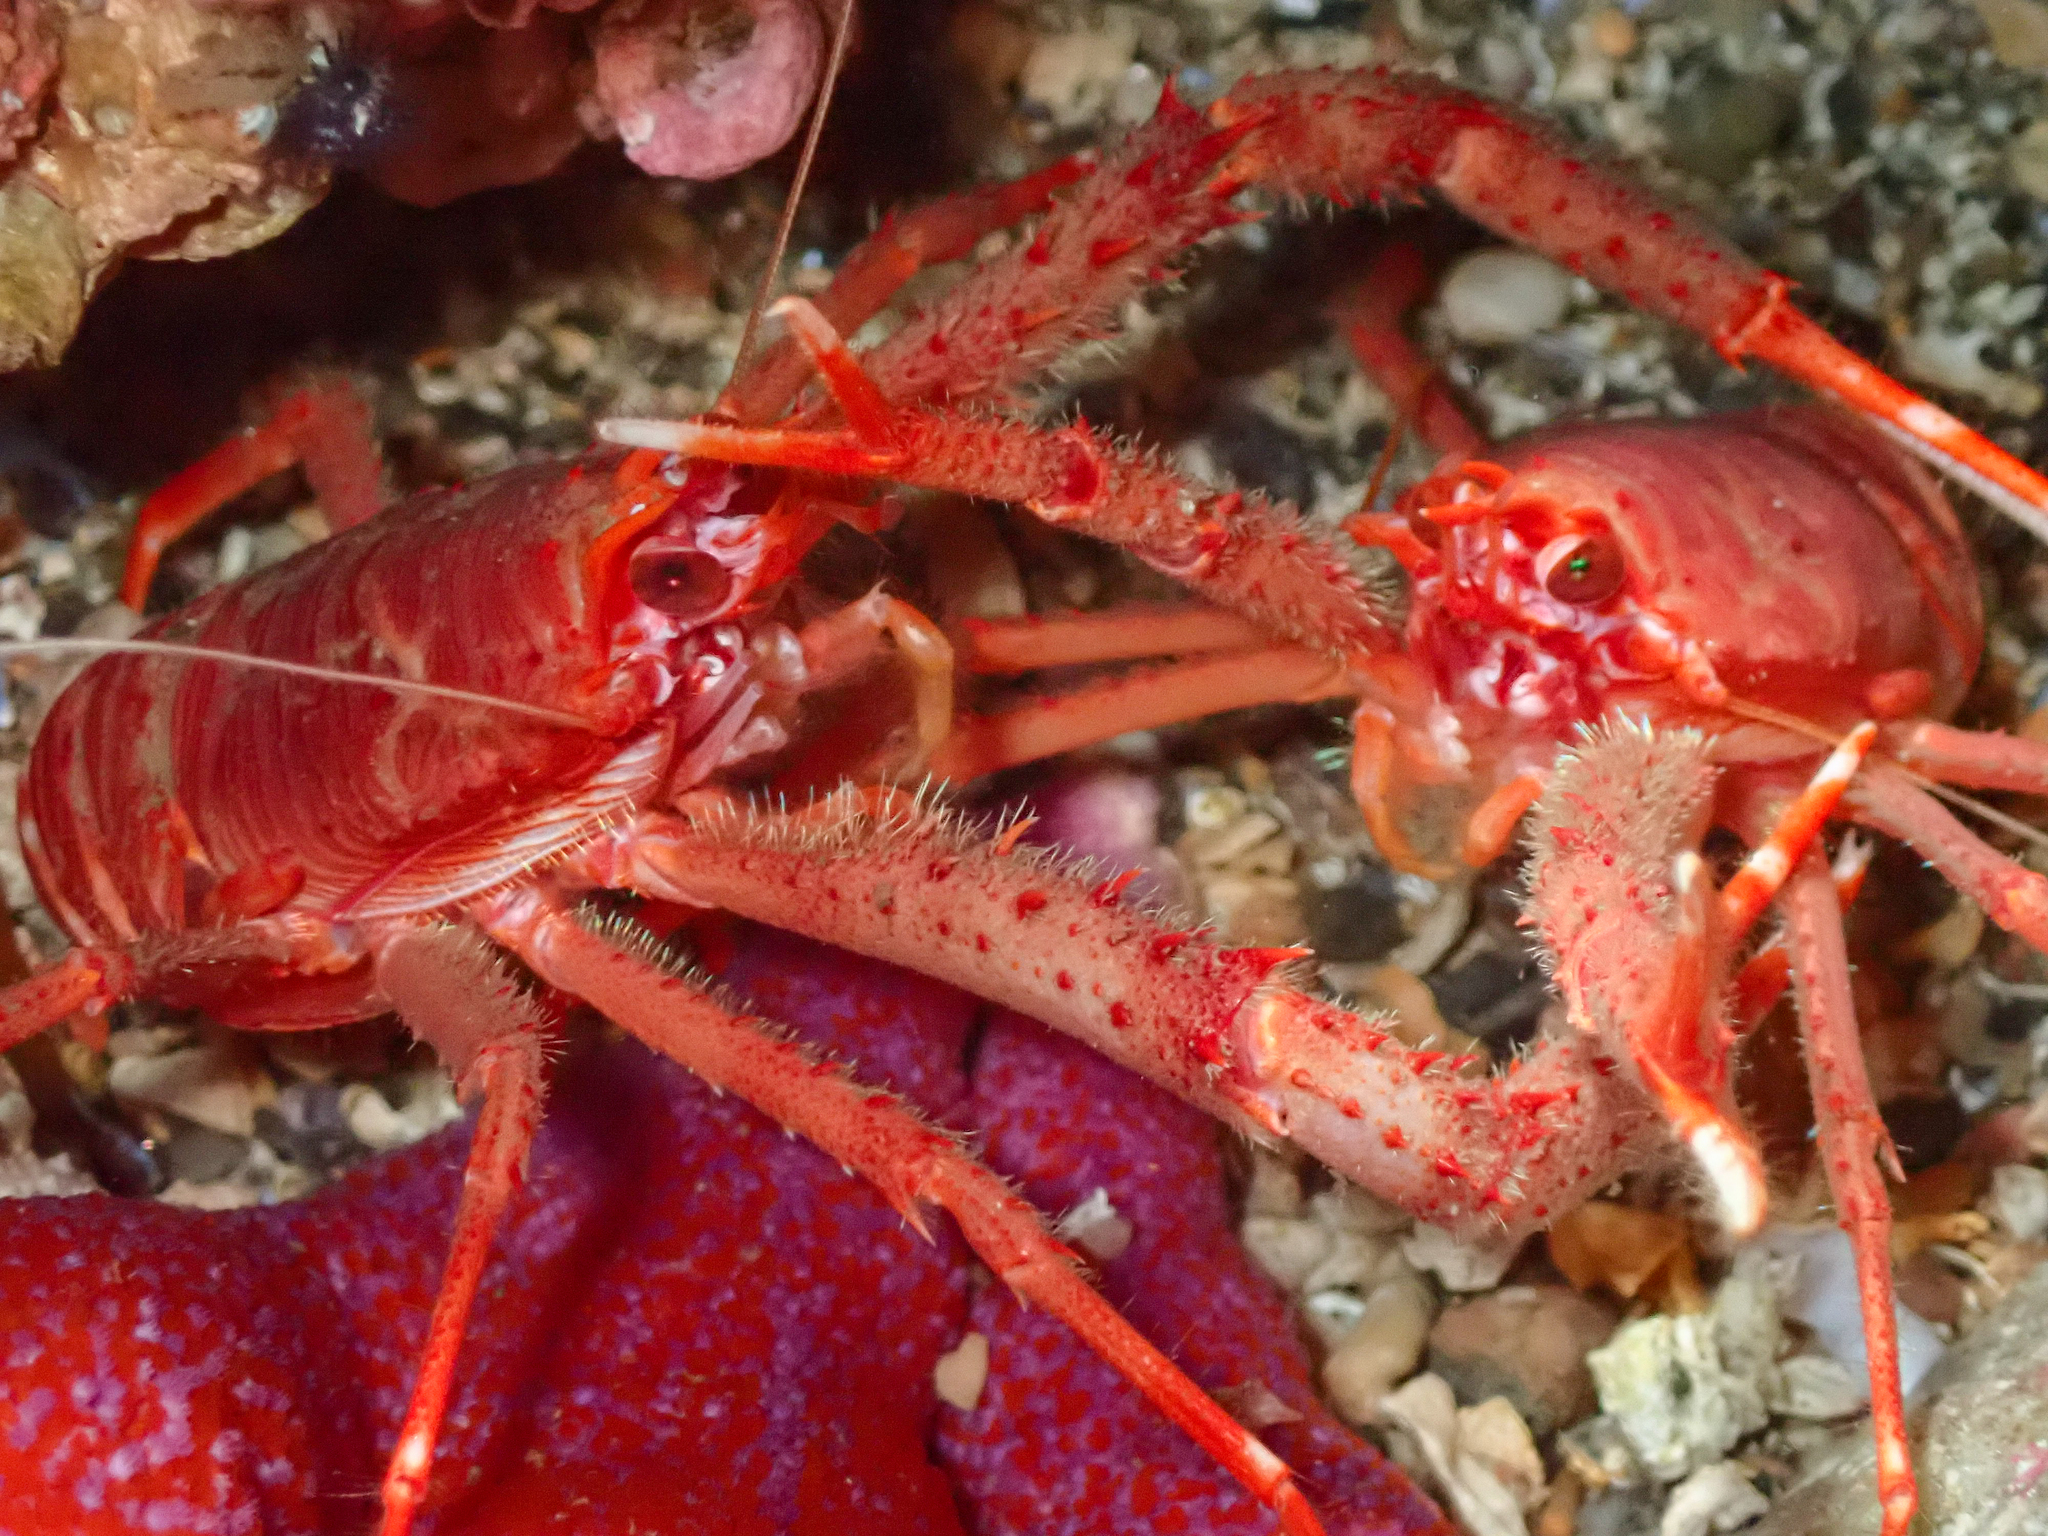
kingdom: Animalia
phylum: Arthropoda
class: Malacostraca
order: Decapoda
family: Munididae
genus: Munida
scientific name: Munida rugosa
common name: Rugose squat lobster
